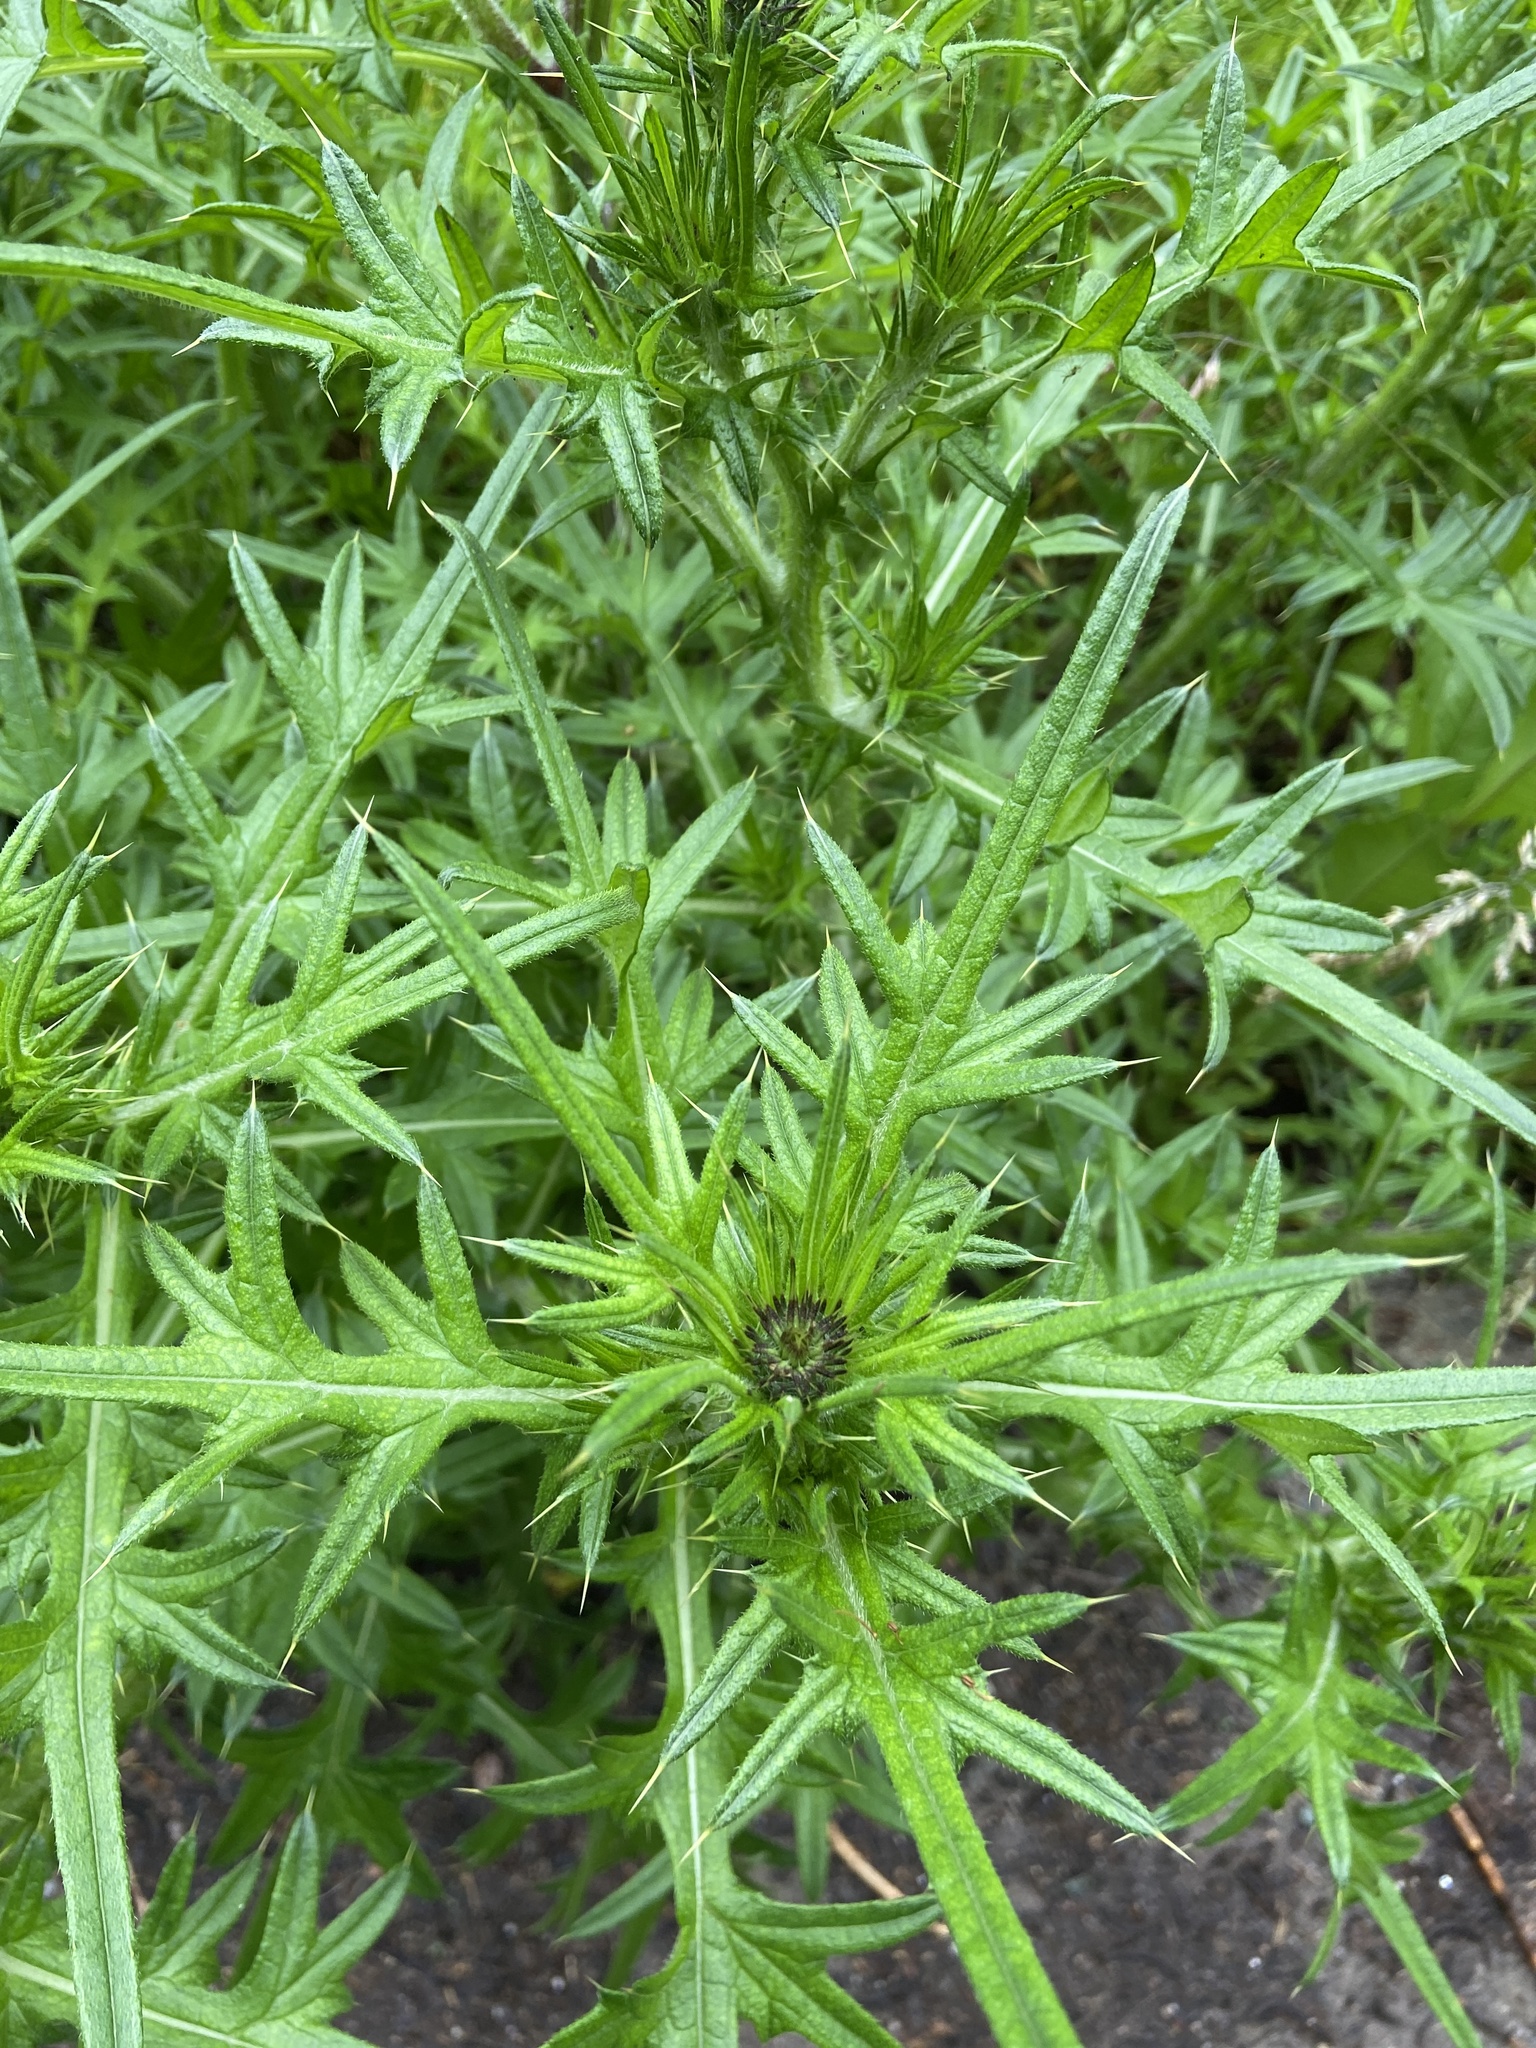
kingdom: Plantae
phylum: Tracheophyta
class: Magnoliopsida
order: Asterales
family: Asteraceae
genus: Cirsium
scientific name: Cirsium vulgare
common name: Bull thistle
